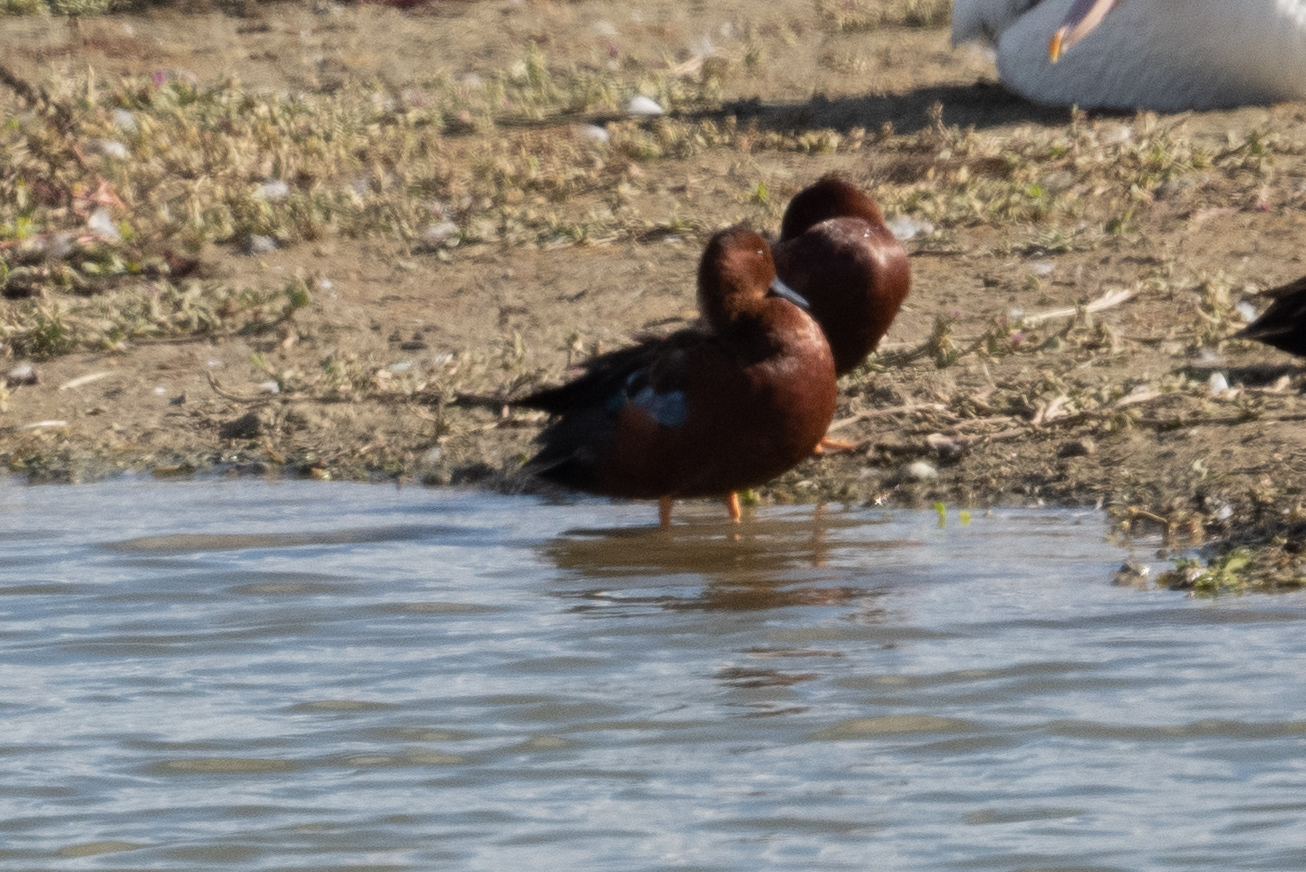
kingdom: Animalia
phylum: Chordata
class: Aves
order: Anseriformes
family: Anatidae
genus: Spatula
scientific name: Spatula cyanoptera
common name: Cinnamon teal
